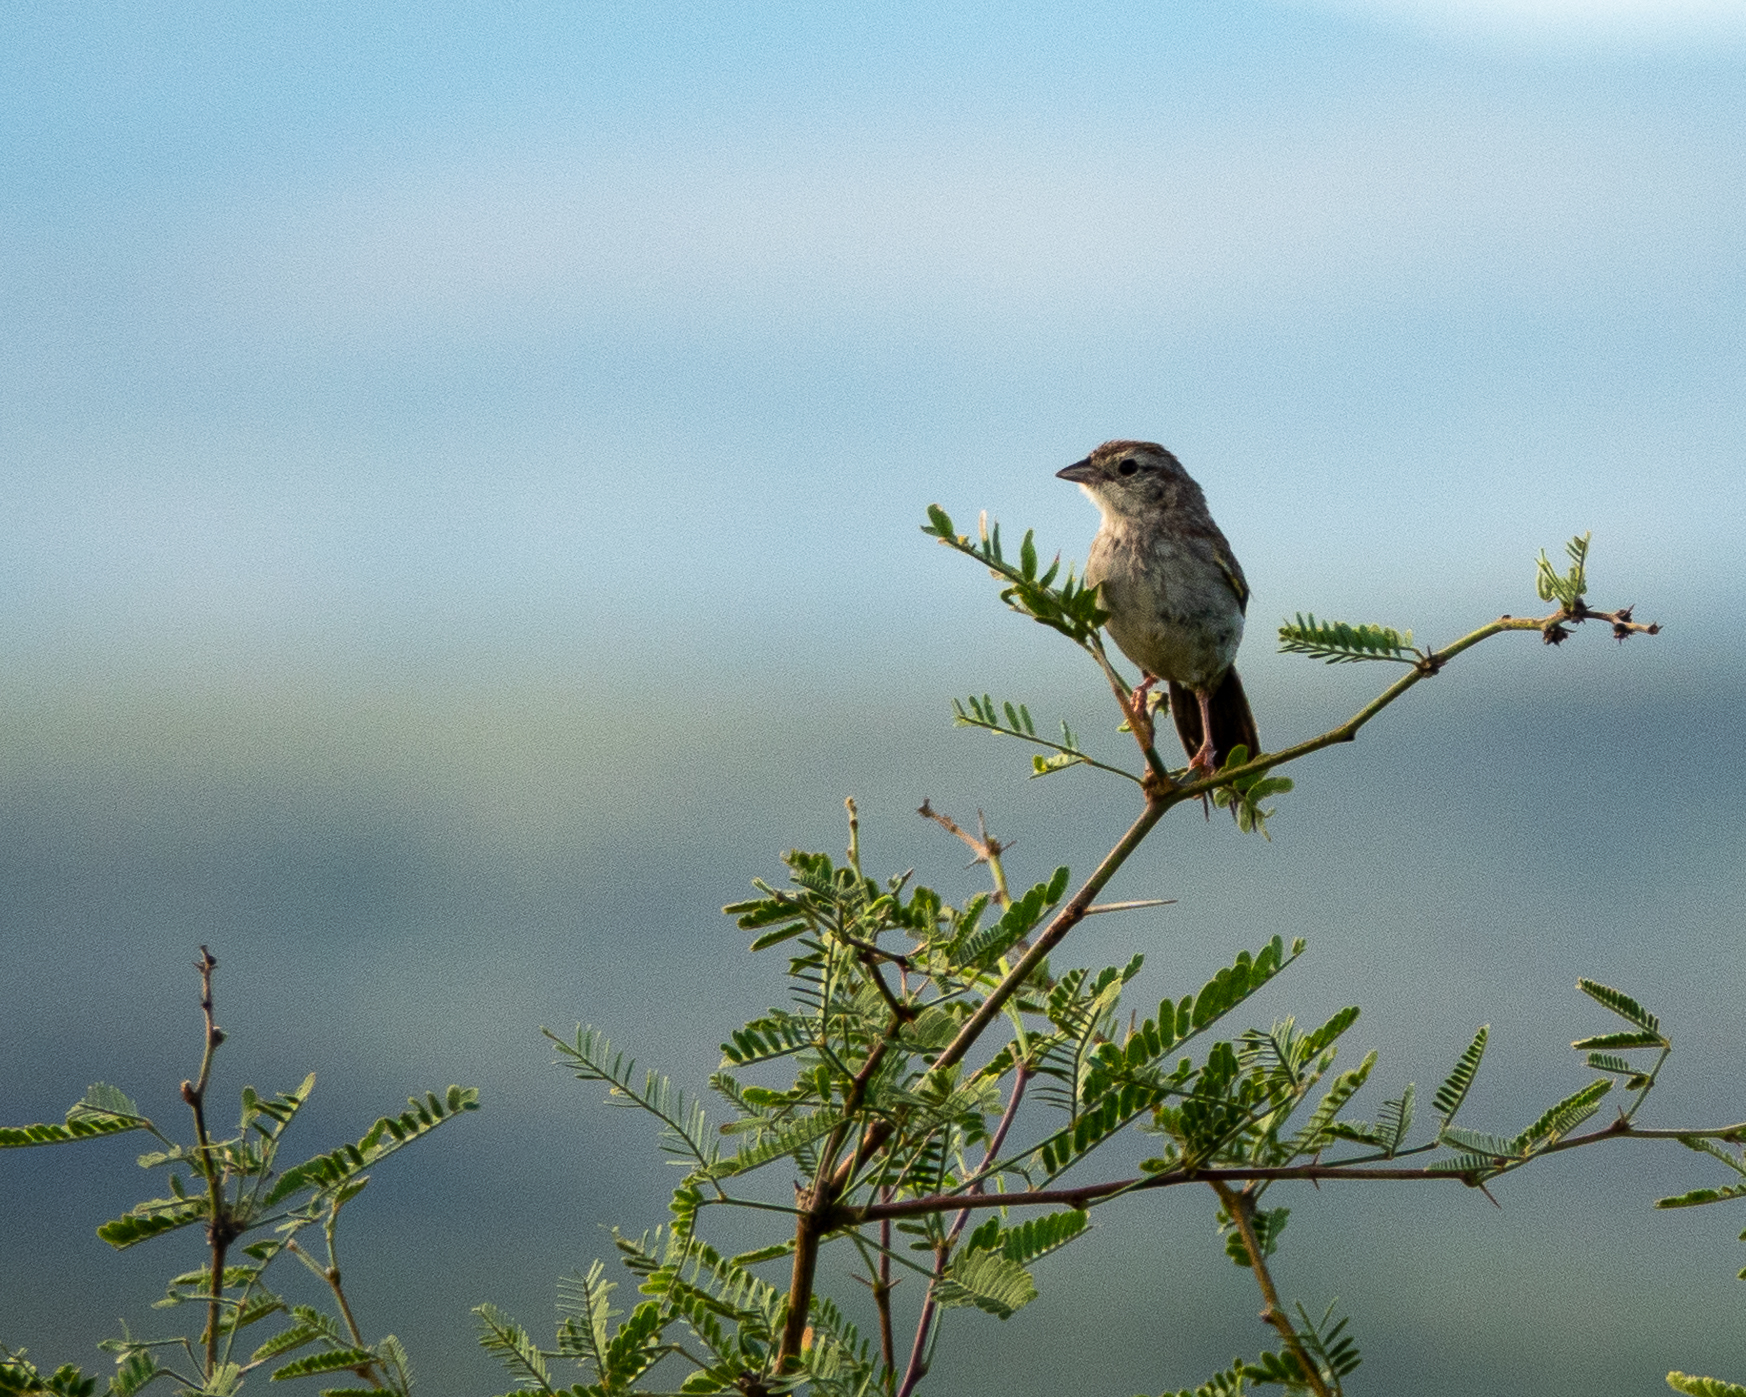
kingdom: Animalia
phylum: Chordata
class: Aves
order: Passeriformes
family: Passerellidae
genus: Peucaea
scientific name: Peucaea botterii
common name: Botteri's sparrow
